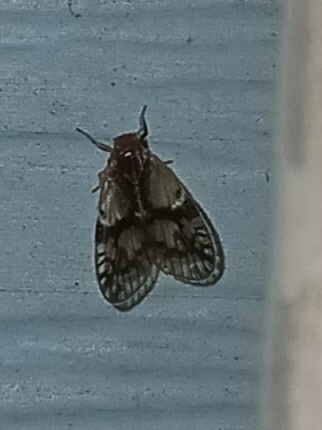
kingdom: Animalia
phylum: Arthropoda
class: Insecta
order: Hemiptera
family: Cixiidae
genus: Bothriocera
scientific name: Bothriocera datuna
